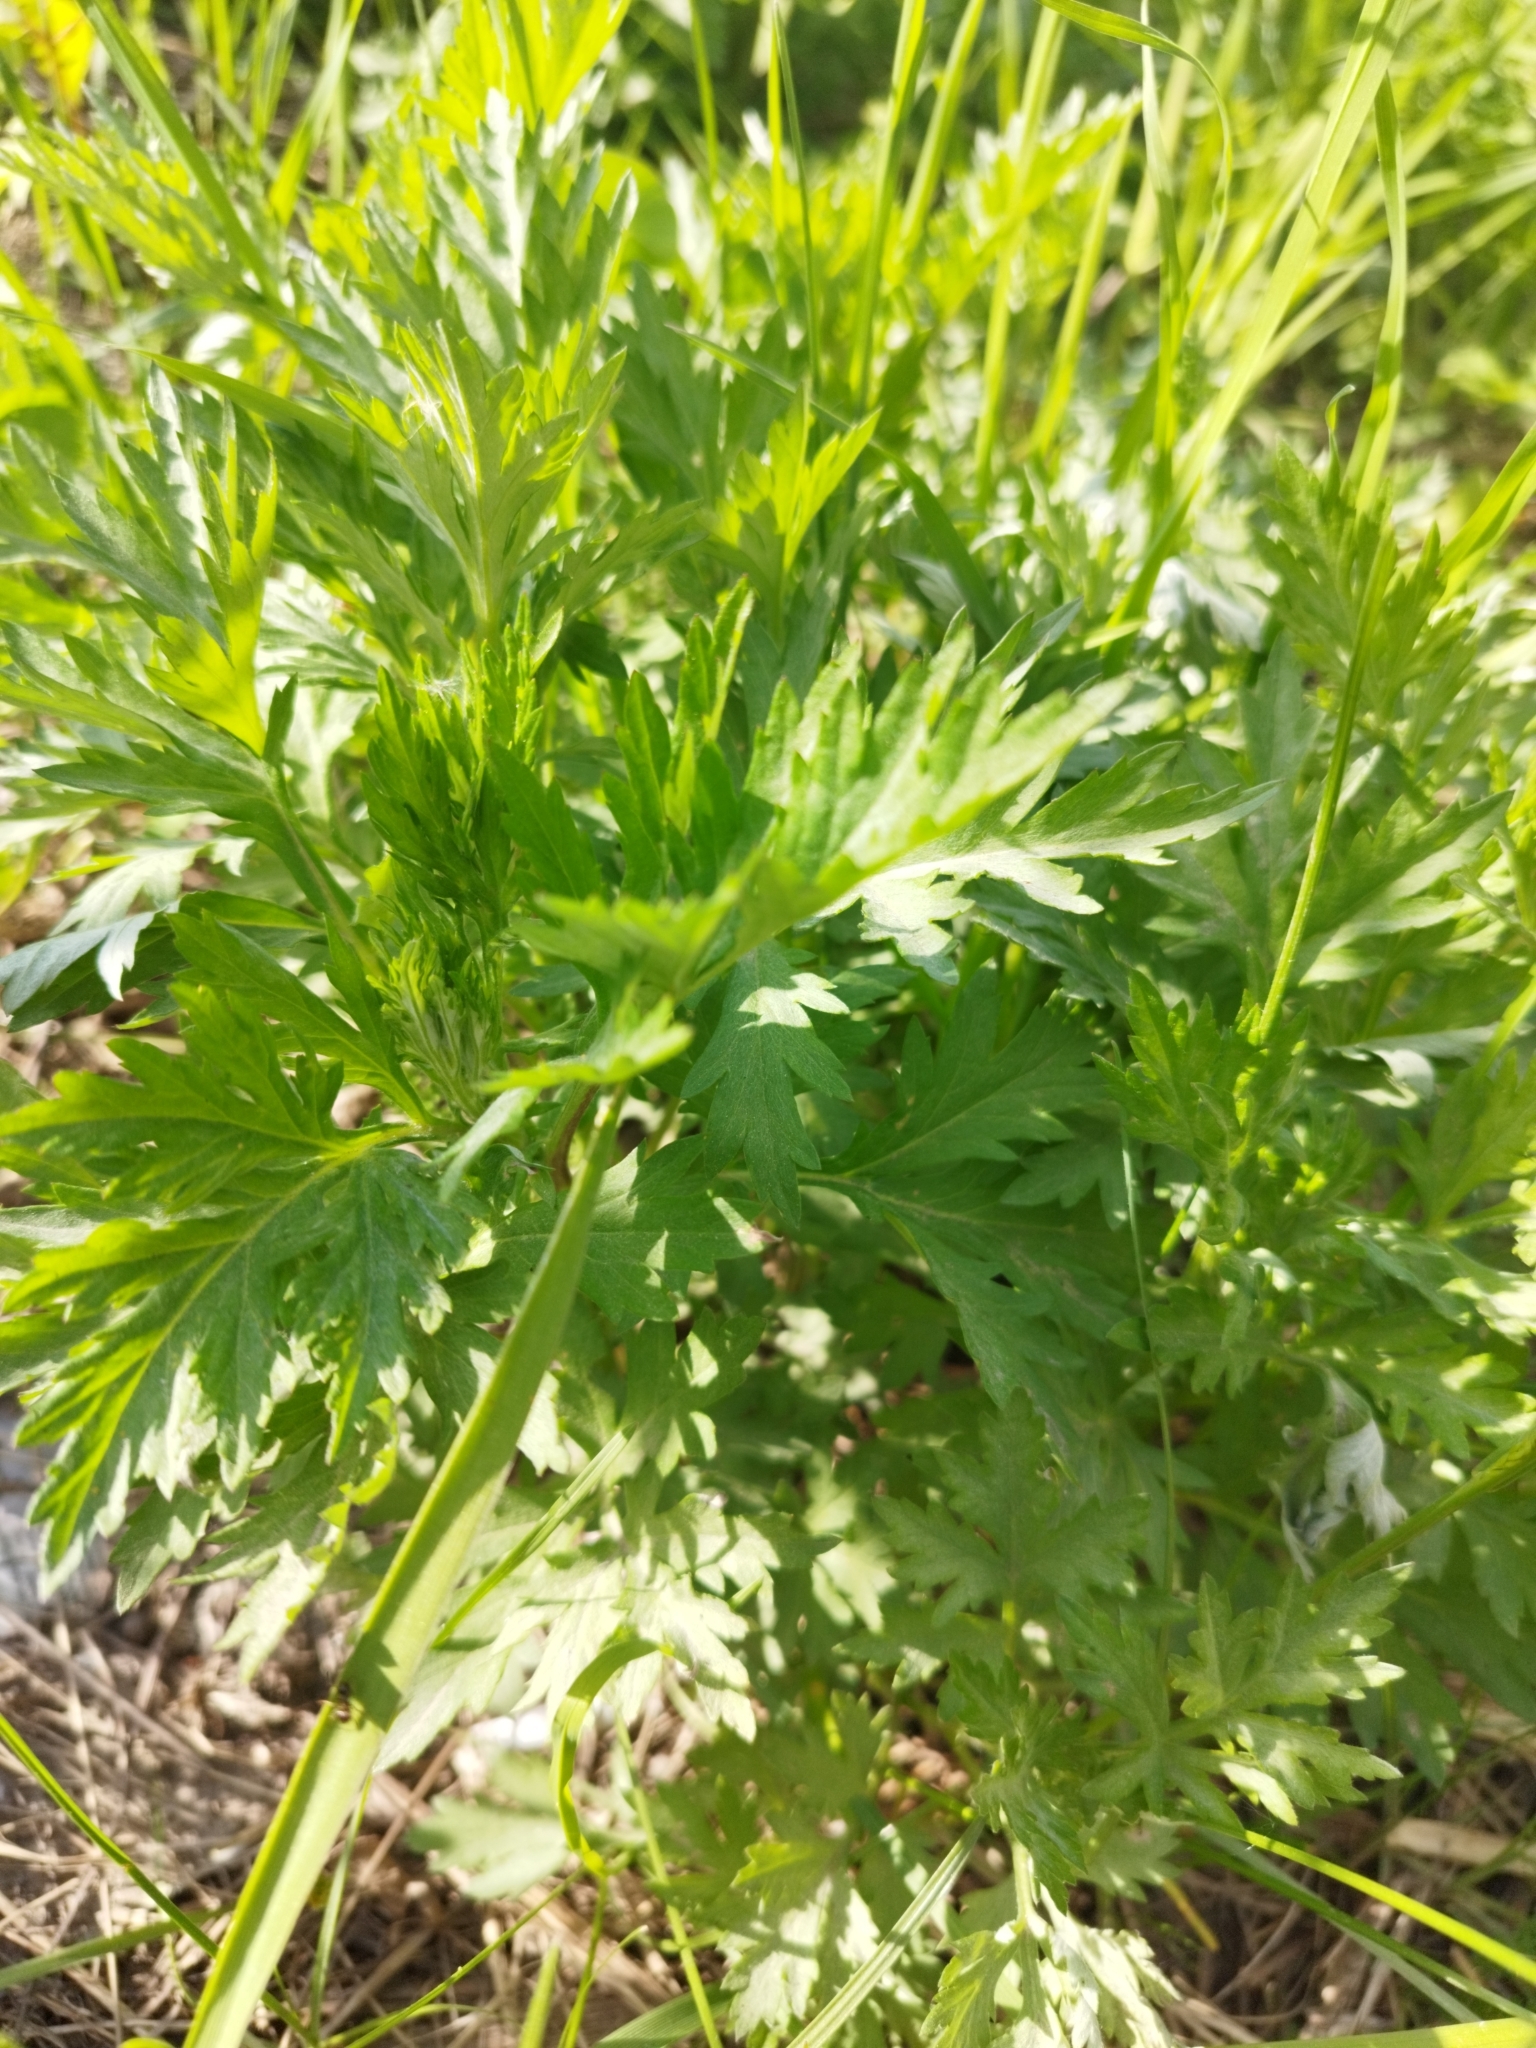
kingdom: Plantae
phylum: Tracheophyta
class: Magnoliopsida
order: Asterales
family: Asteraceae
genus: Artemisia
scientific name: Artemisia vulgaris
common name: Mugwort
